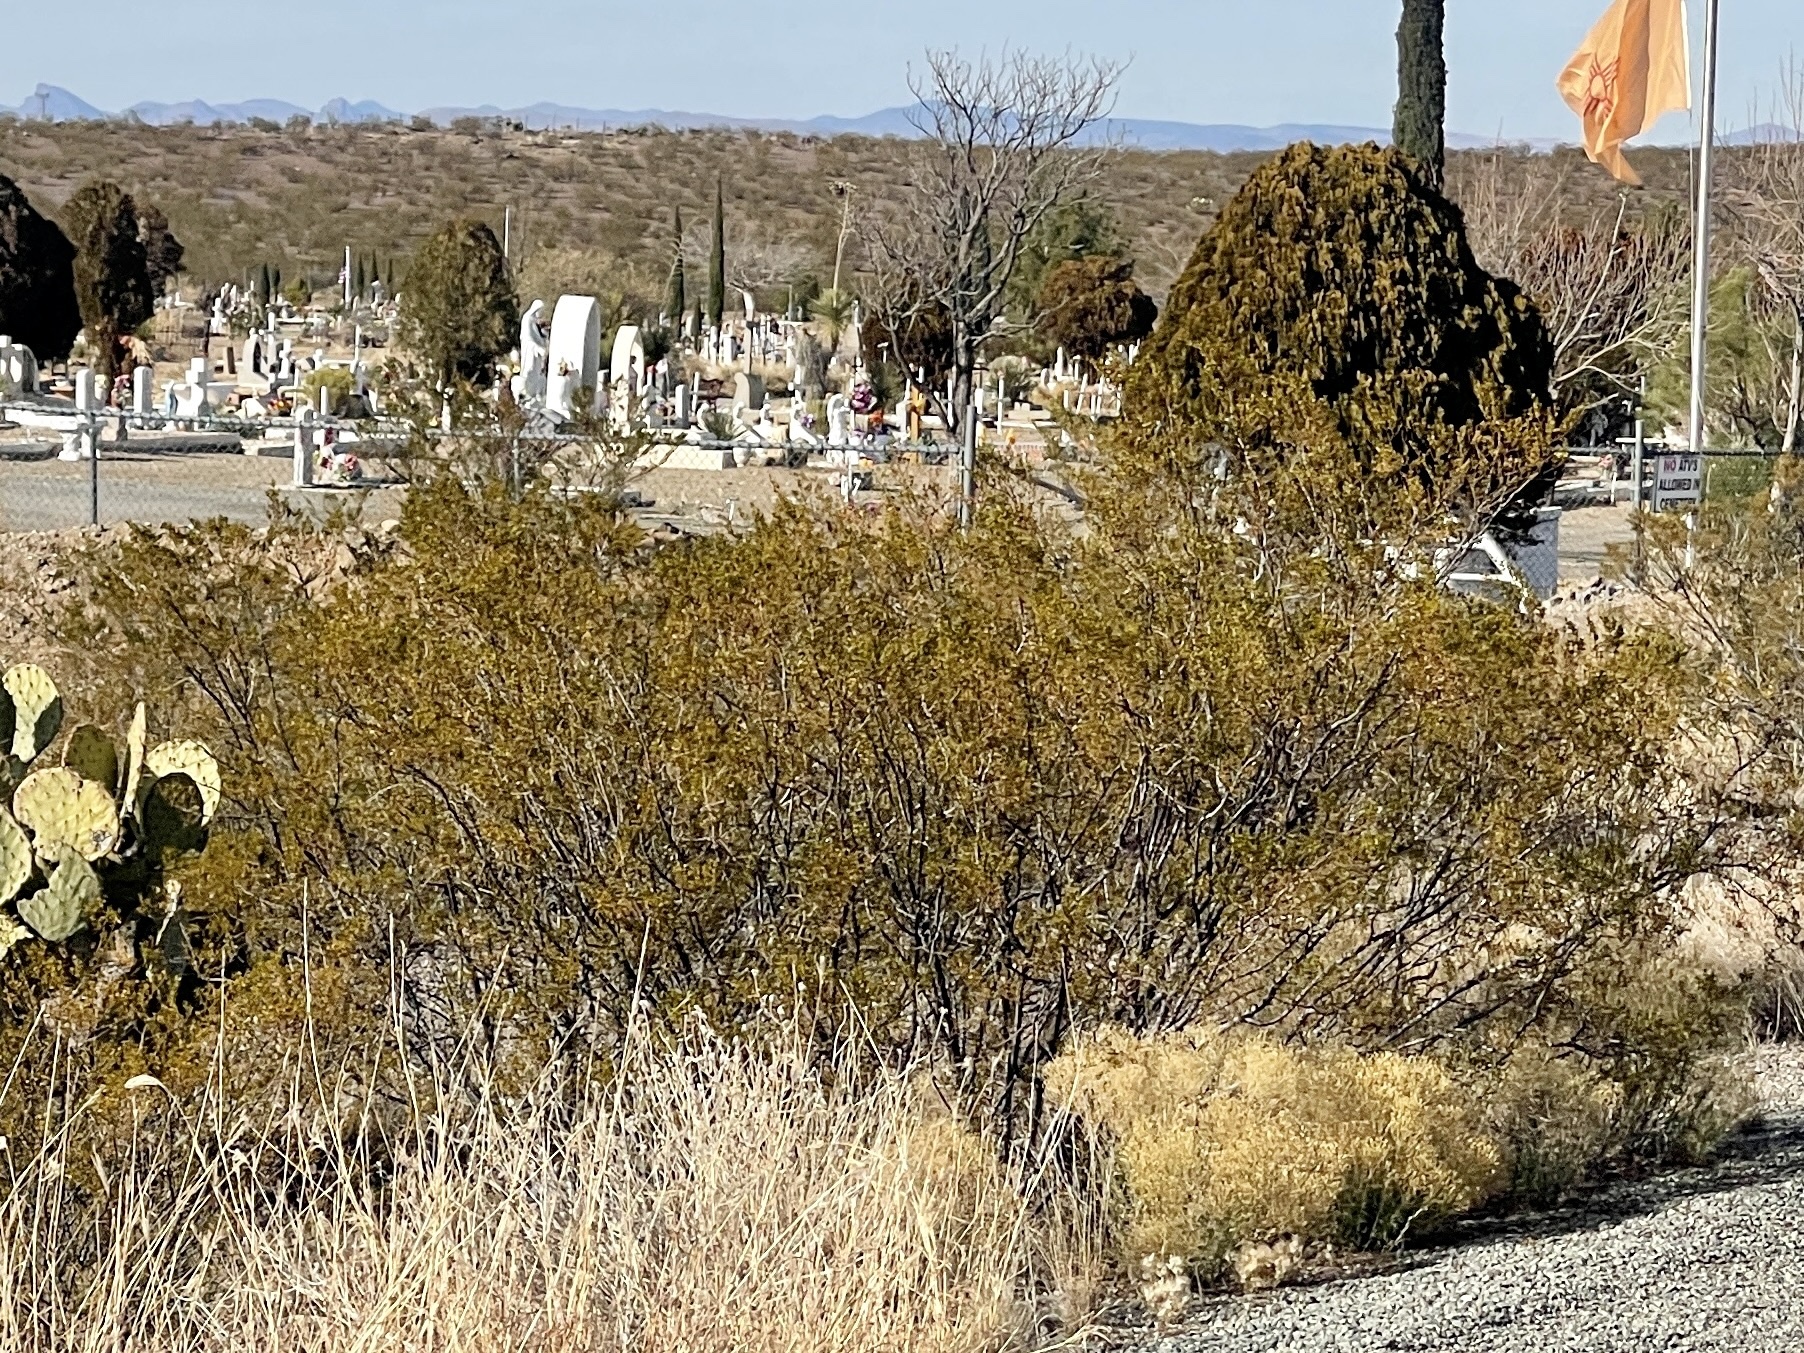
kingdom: Plantae
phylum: Tracheophyta
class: Magnoliopsida
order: Zygophyllales
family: Zygophyllaceae
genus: Larrea
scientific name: Larrea tridentata
